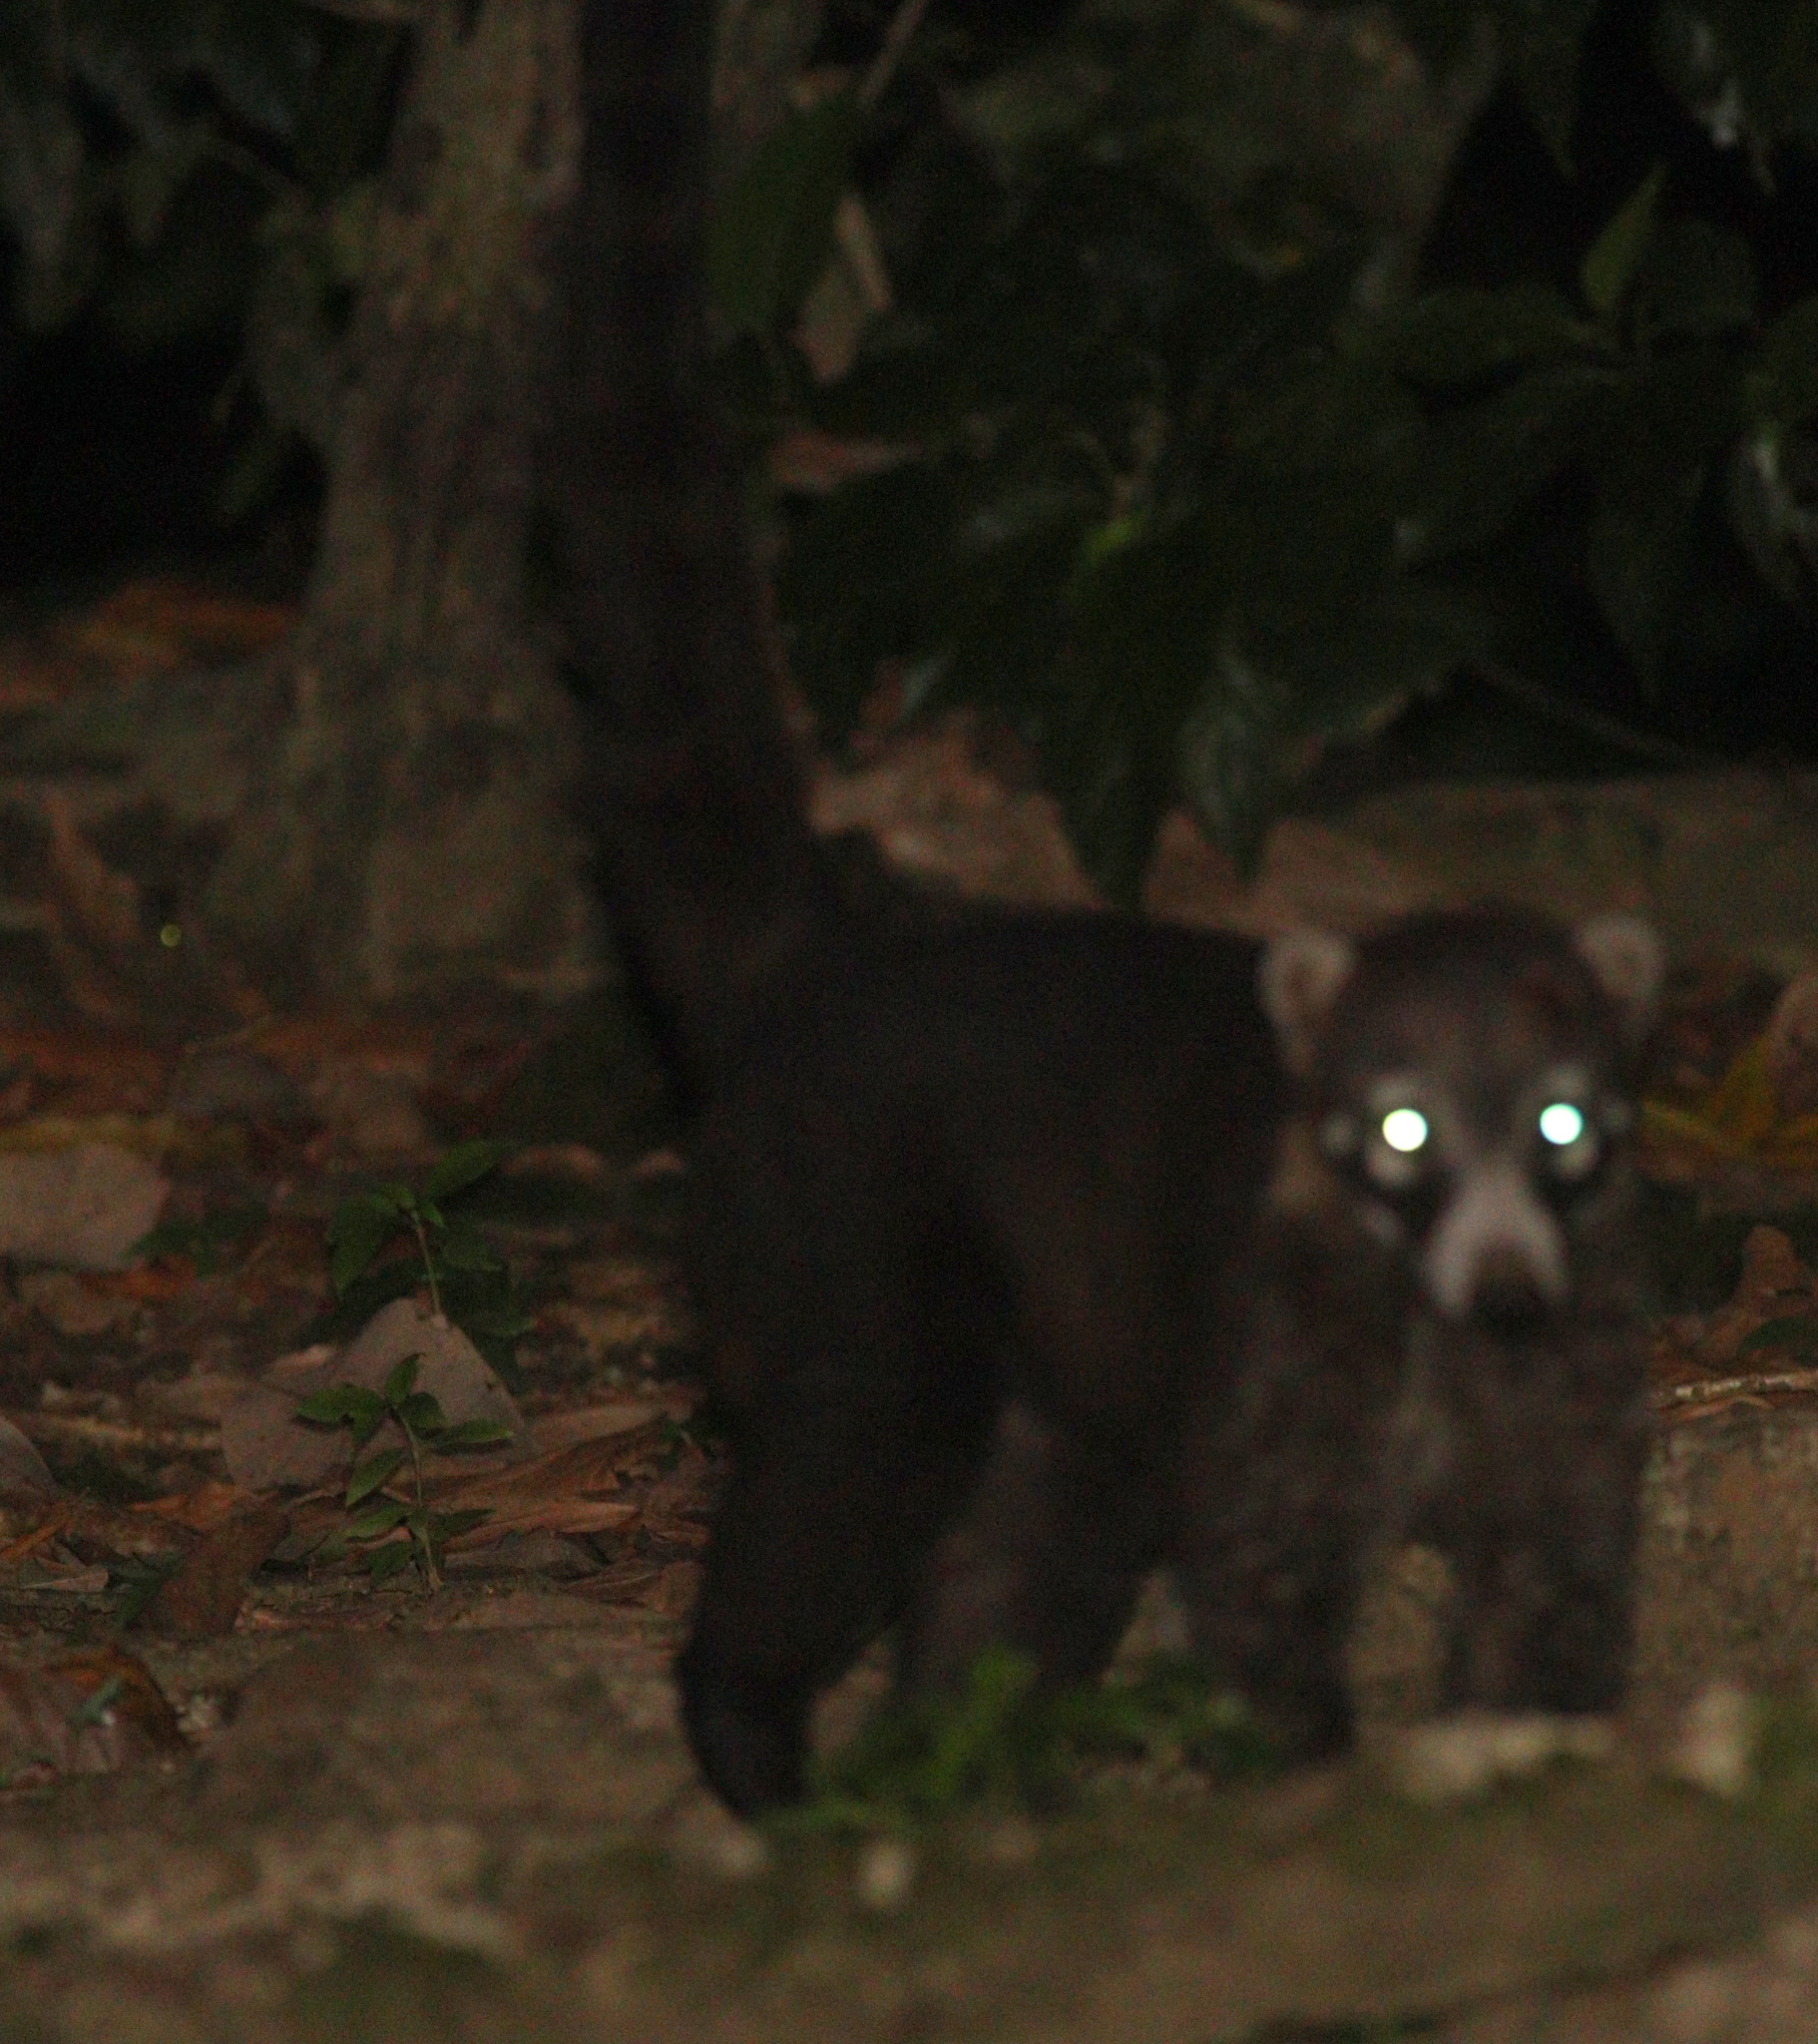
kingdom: Animalia
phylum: Chordata
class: Mammalia
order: Carnivora
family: Procyonidae
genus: Nasua
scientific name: Nasua narica
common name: White-nosed coati
